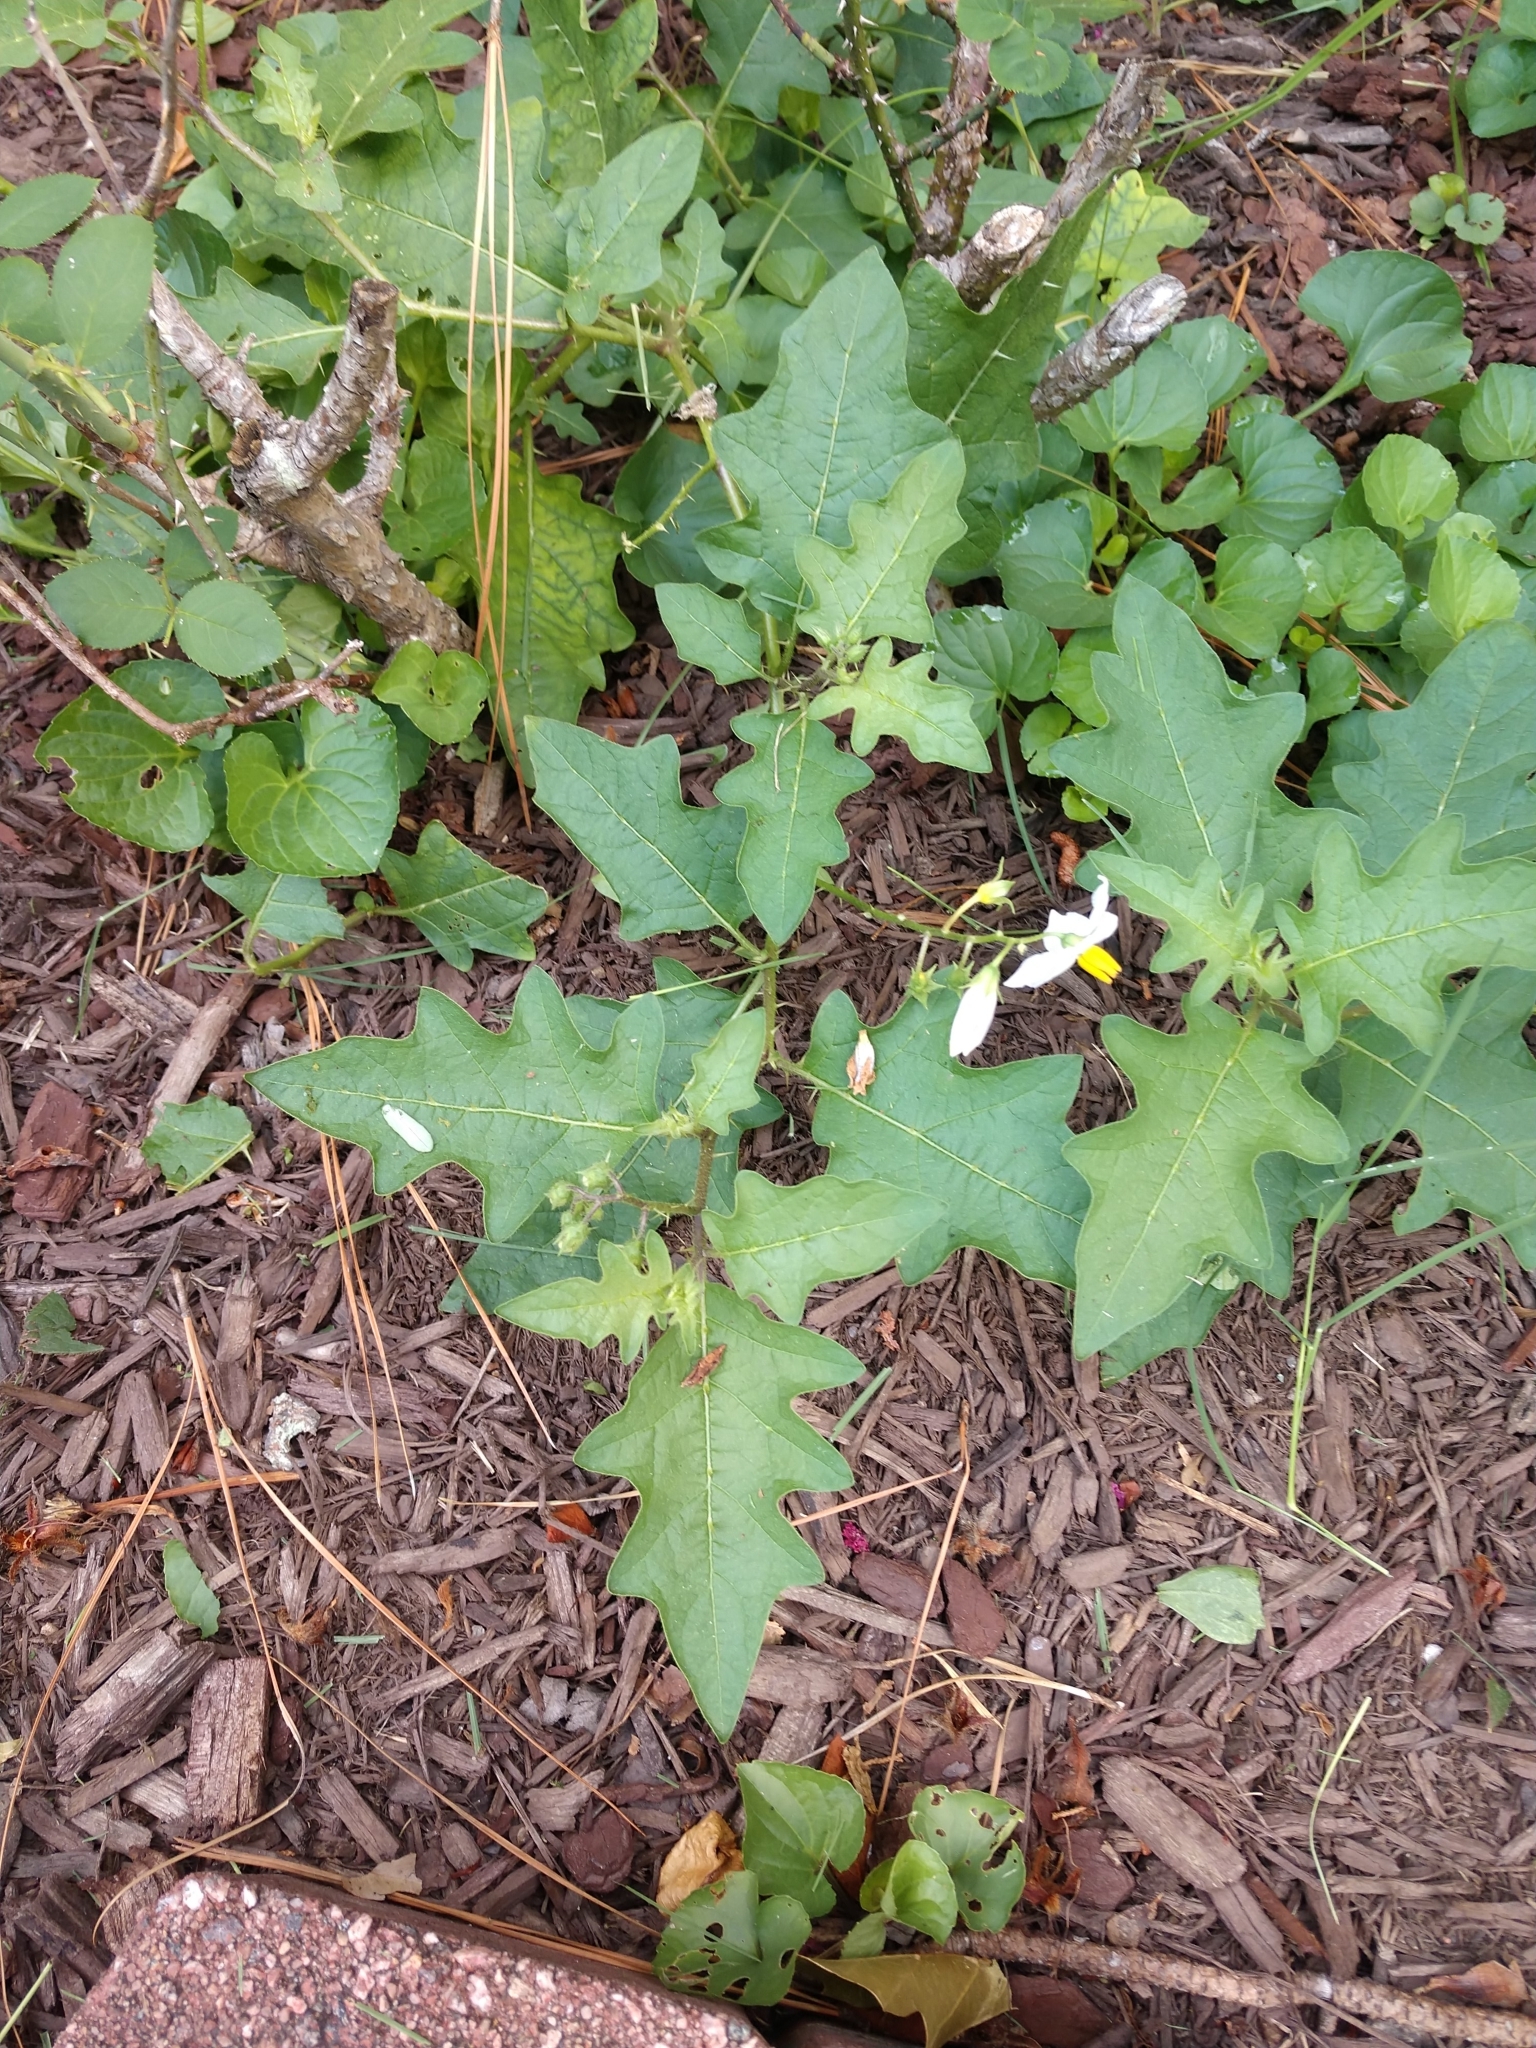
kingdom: Plantae
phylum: Tracheophyta
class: Magnoliopsida
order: Solanales
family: Solanaceae
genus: Solanum
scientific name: Solanum carolinense
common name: Horse-nettle
